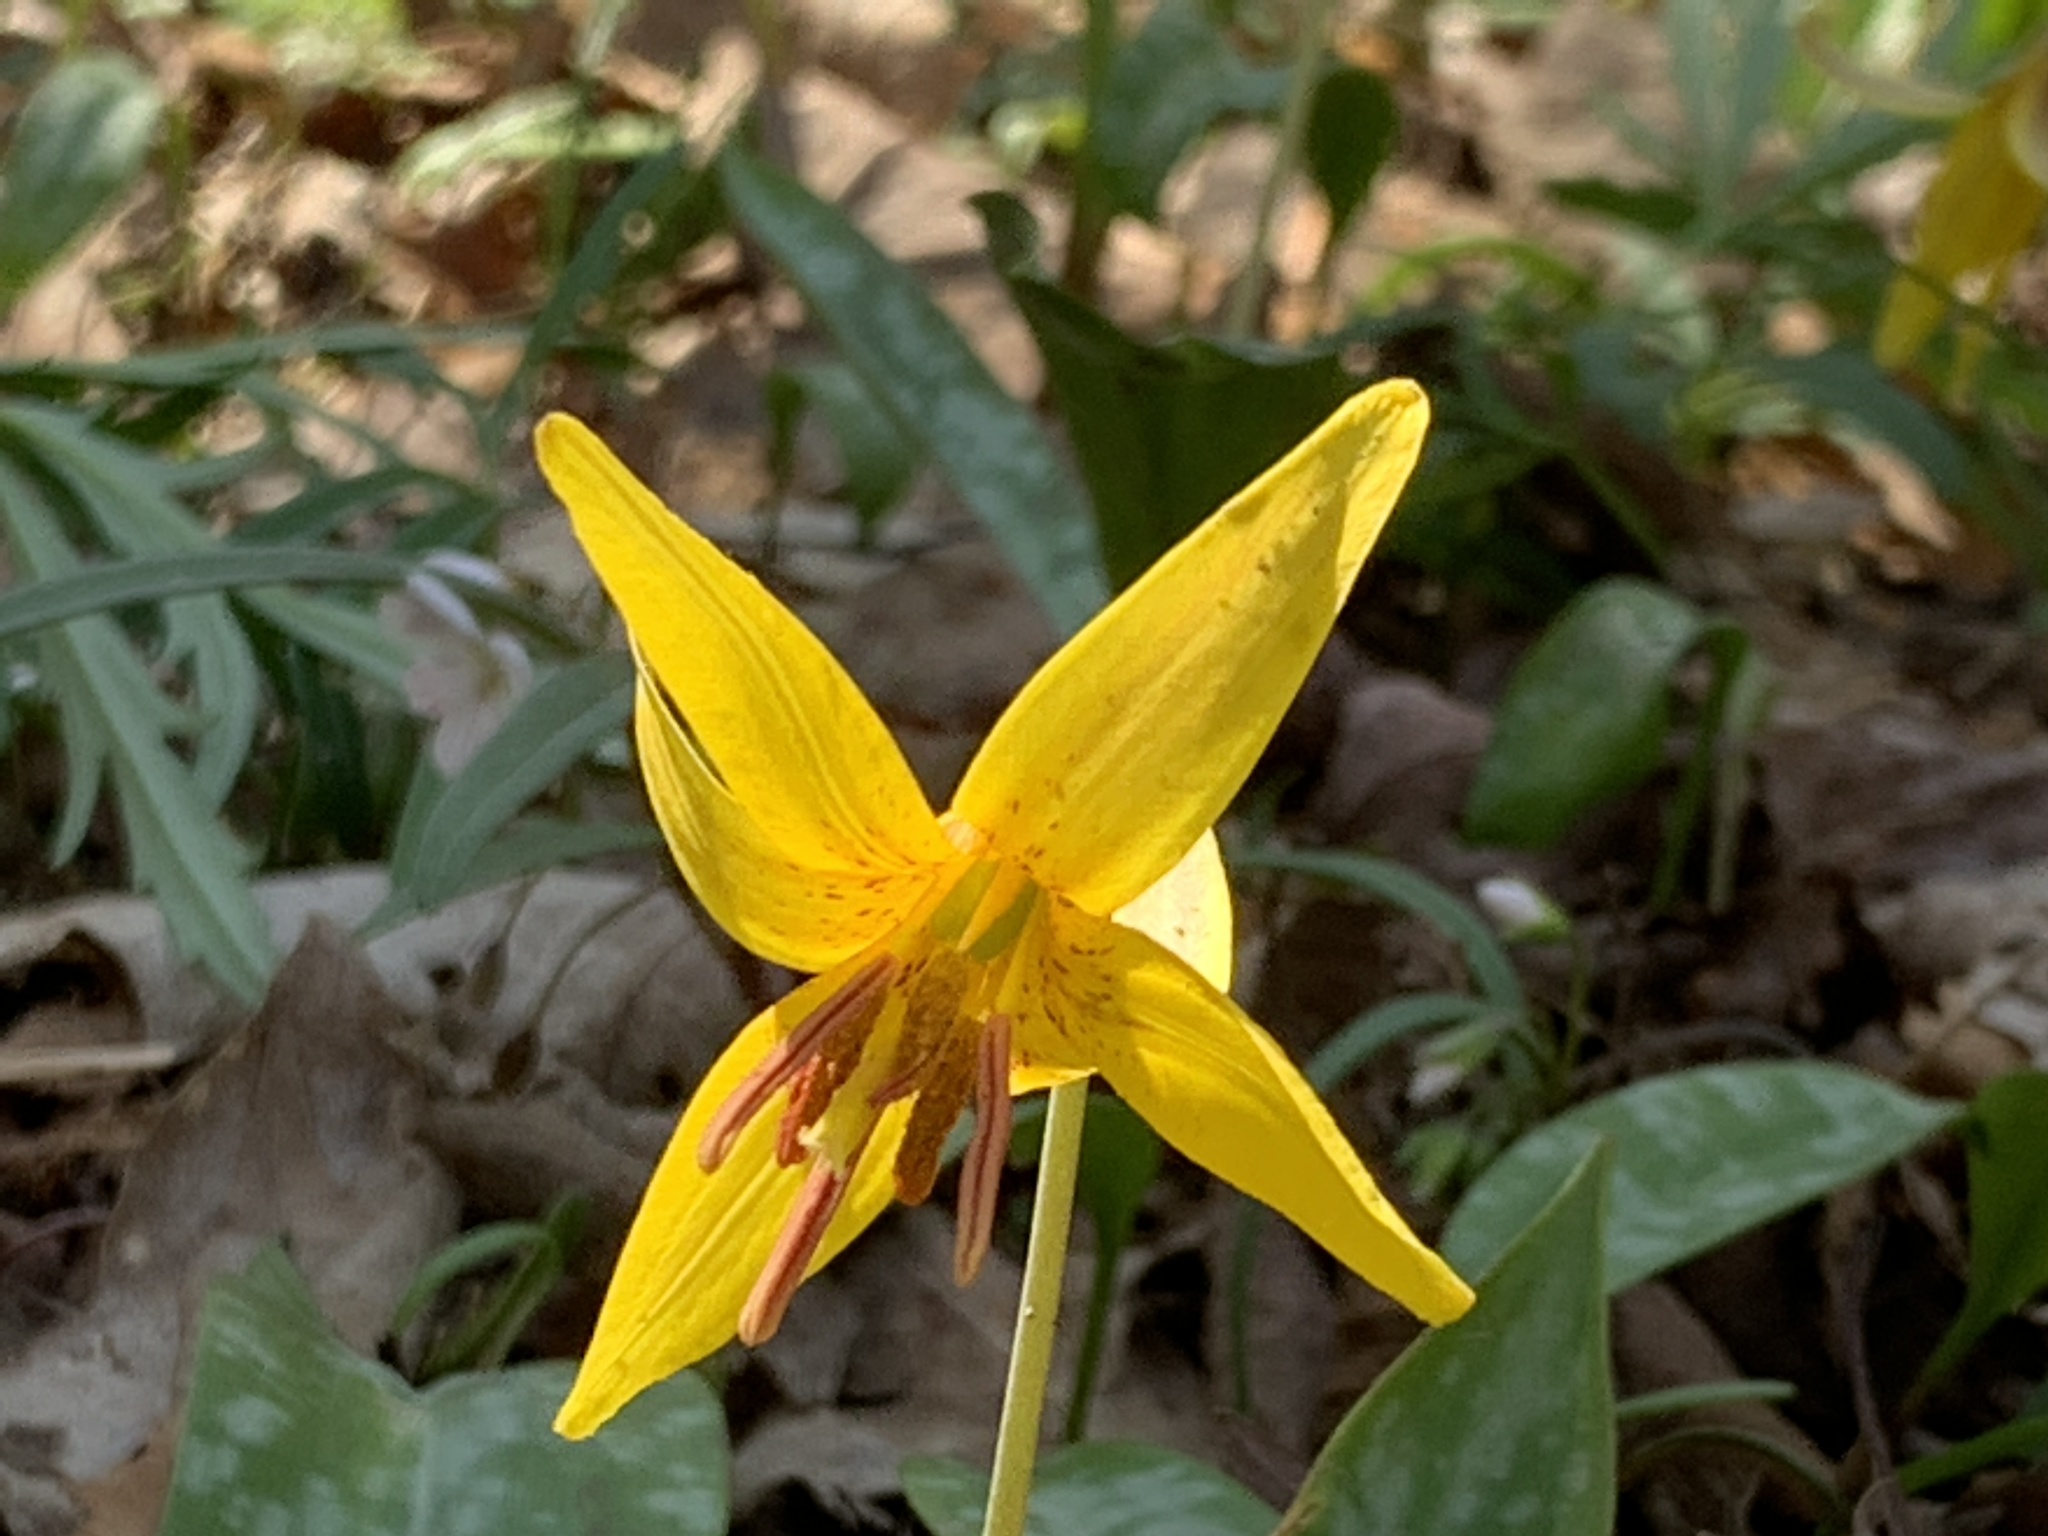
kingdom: Plantae
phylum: Tracheophyta
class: Liliopsida
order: Liliales
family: Liliaceae
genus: Erythronium
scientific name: Erythronium americanum
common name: Yellow adder's-tongue
